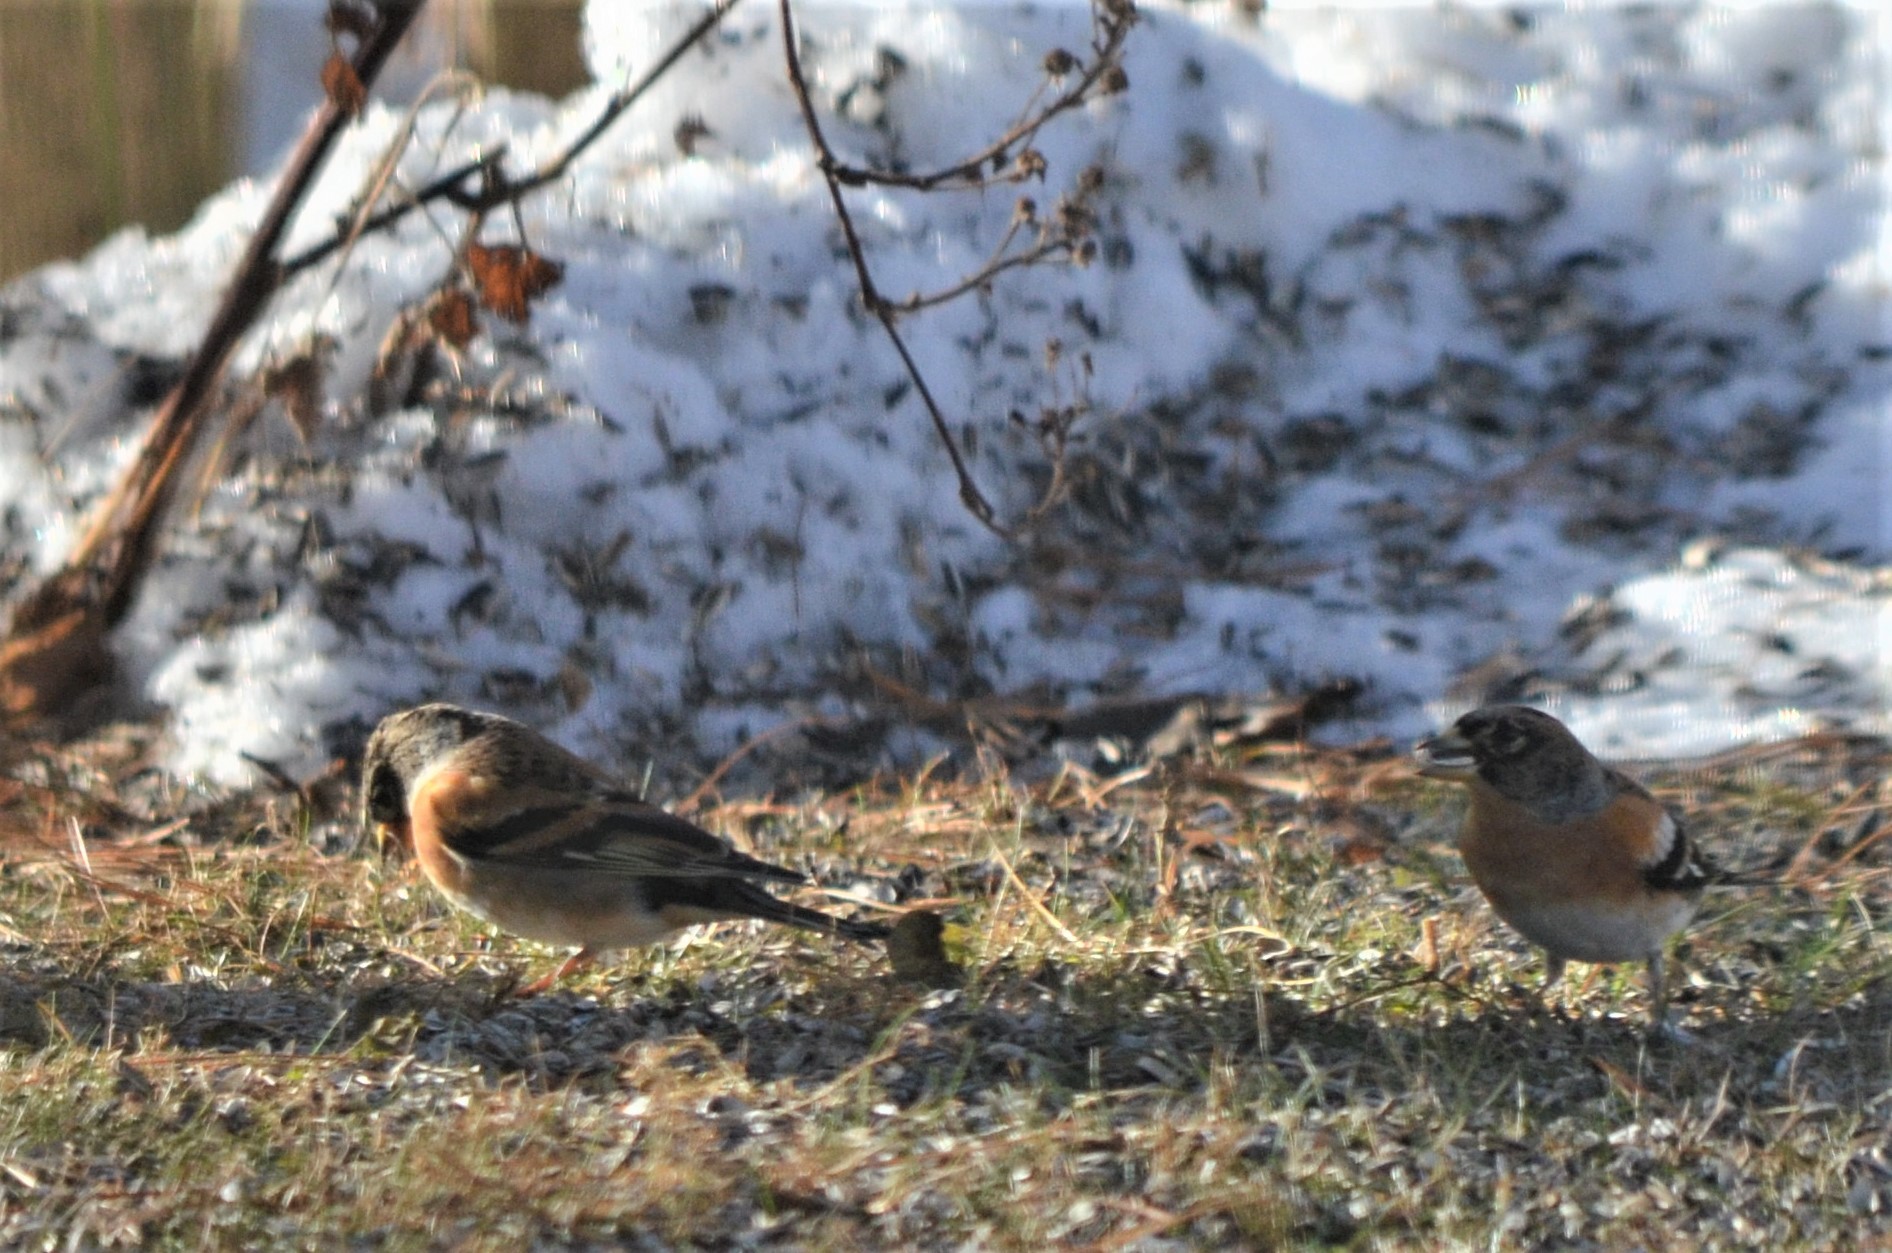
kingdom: Animalia
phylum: Chordata
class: Aves
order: Passeriformes
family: Fringillidae
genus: Fringilla
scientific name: Fringilla montifringilla
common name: Brambling
